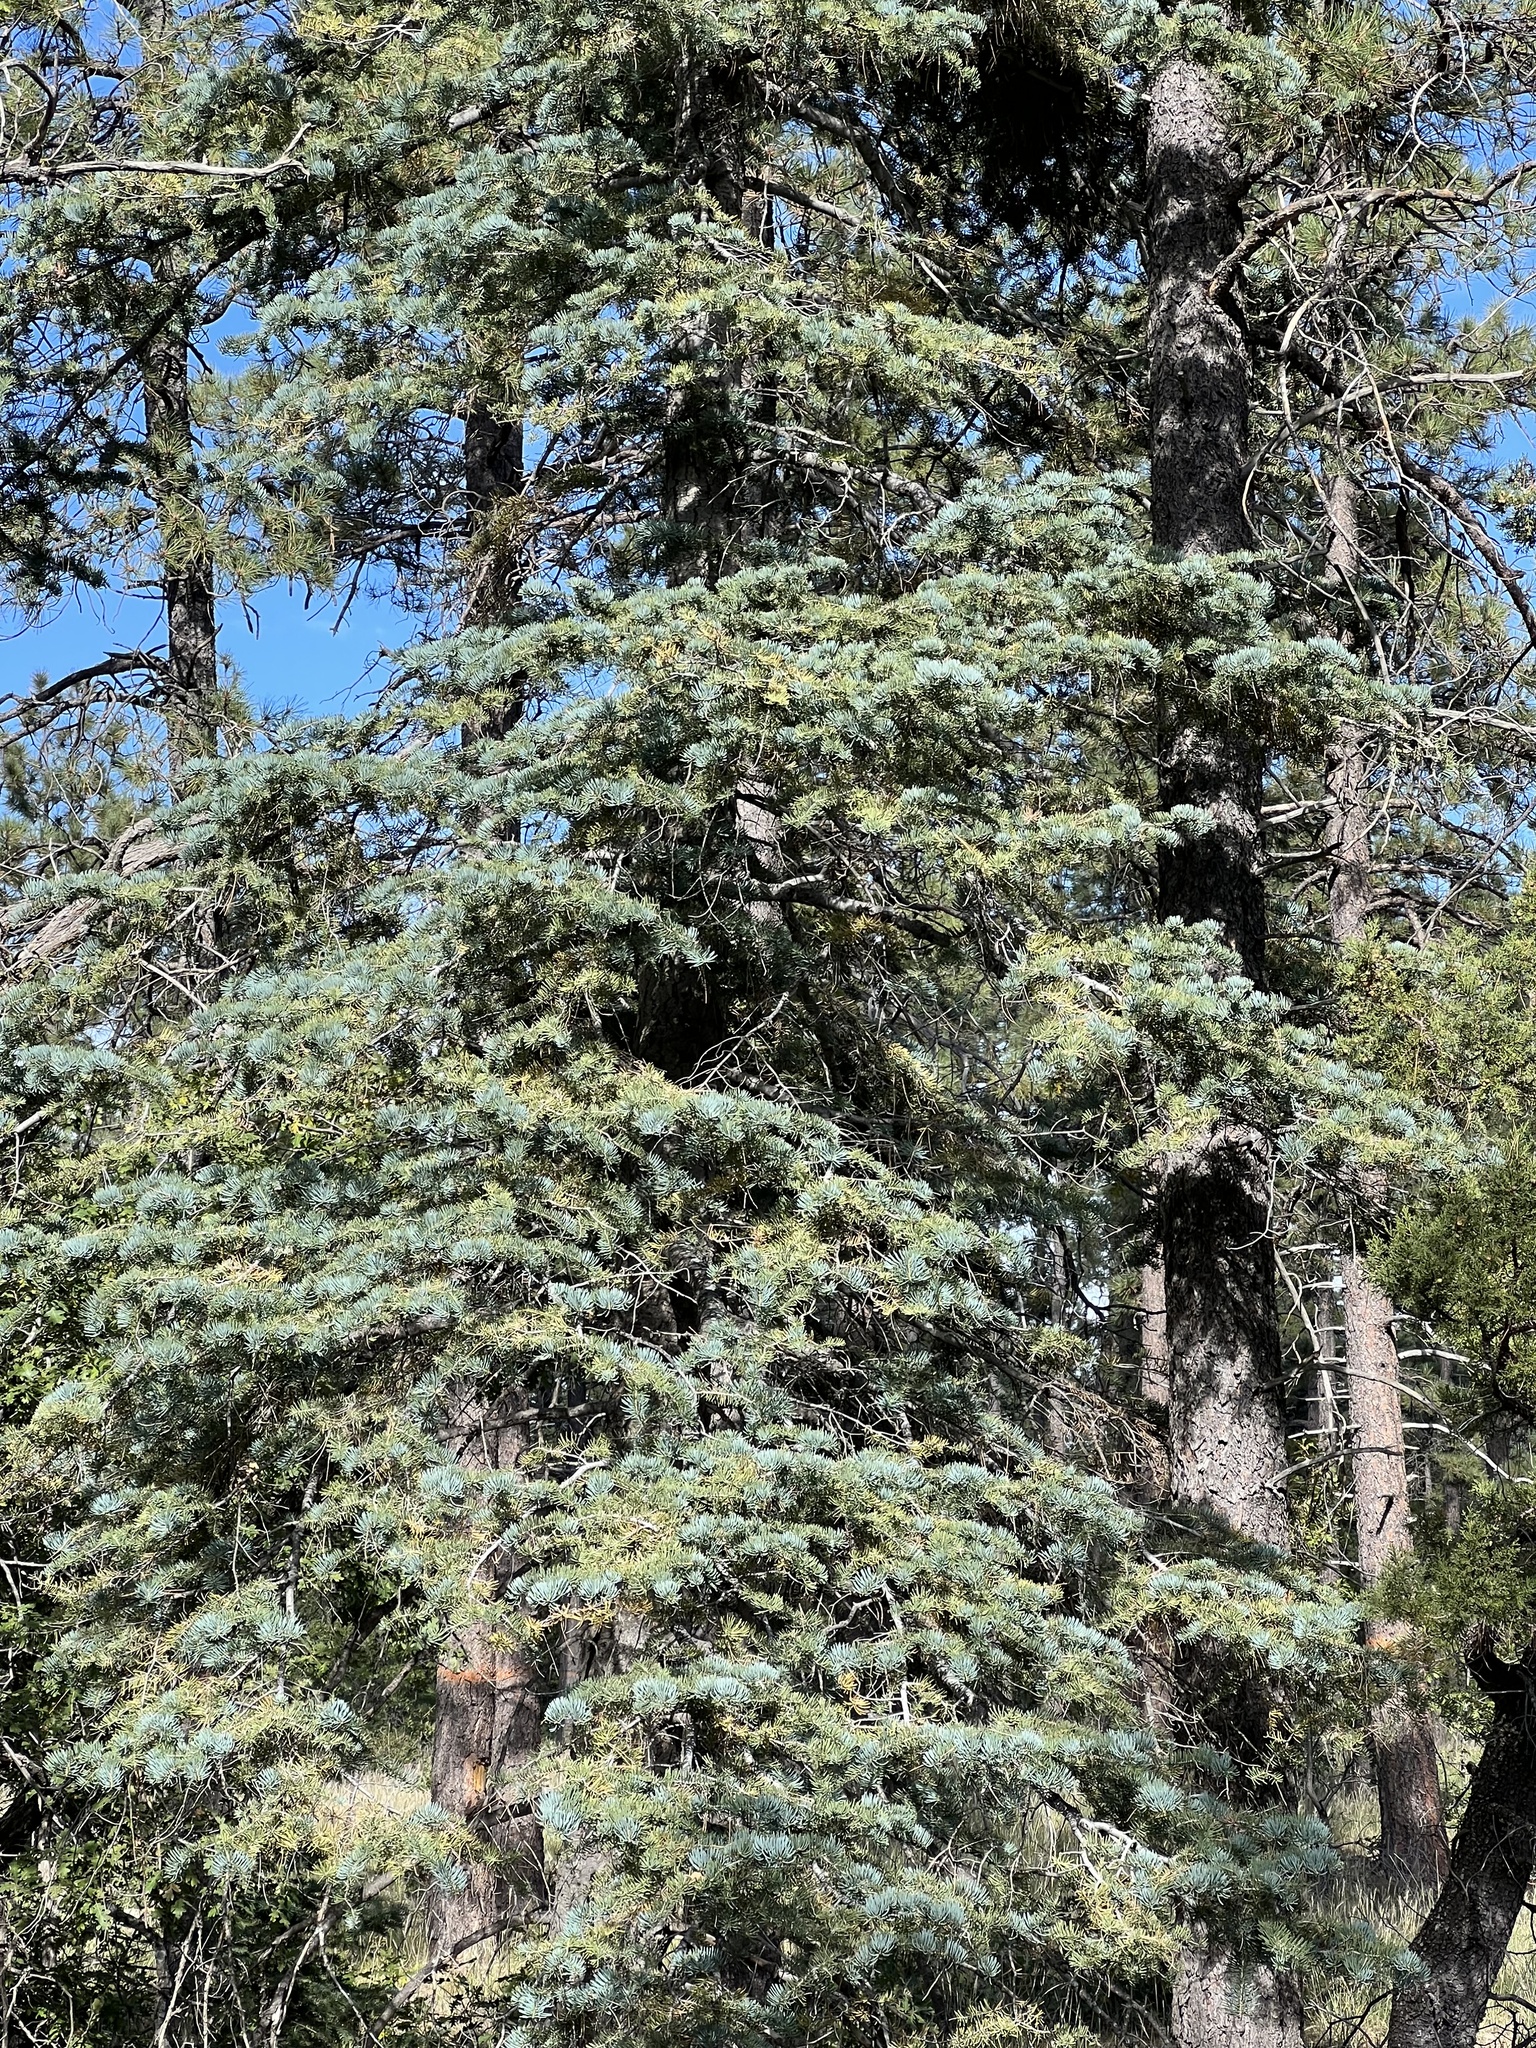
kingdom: Plantae
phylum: Tracheophyta
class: Pinopsida
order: Pinales
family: Pinaceae
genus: Abies
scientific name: Abies concolor
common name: Colorado fir
